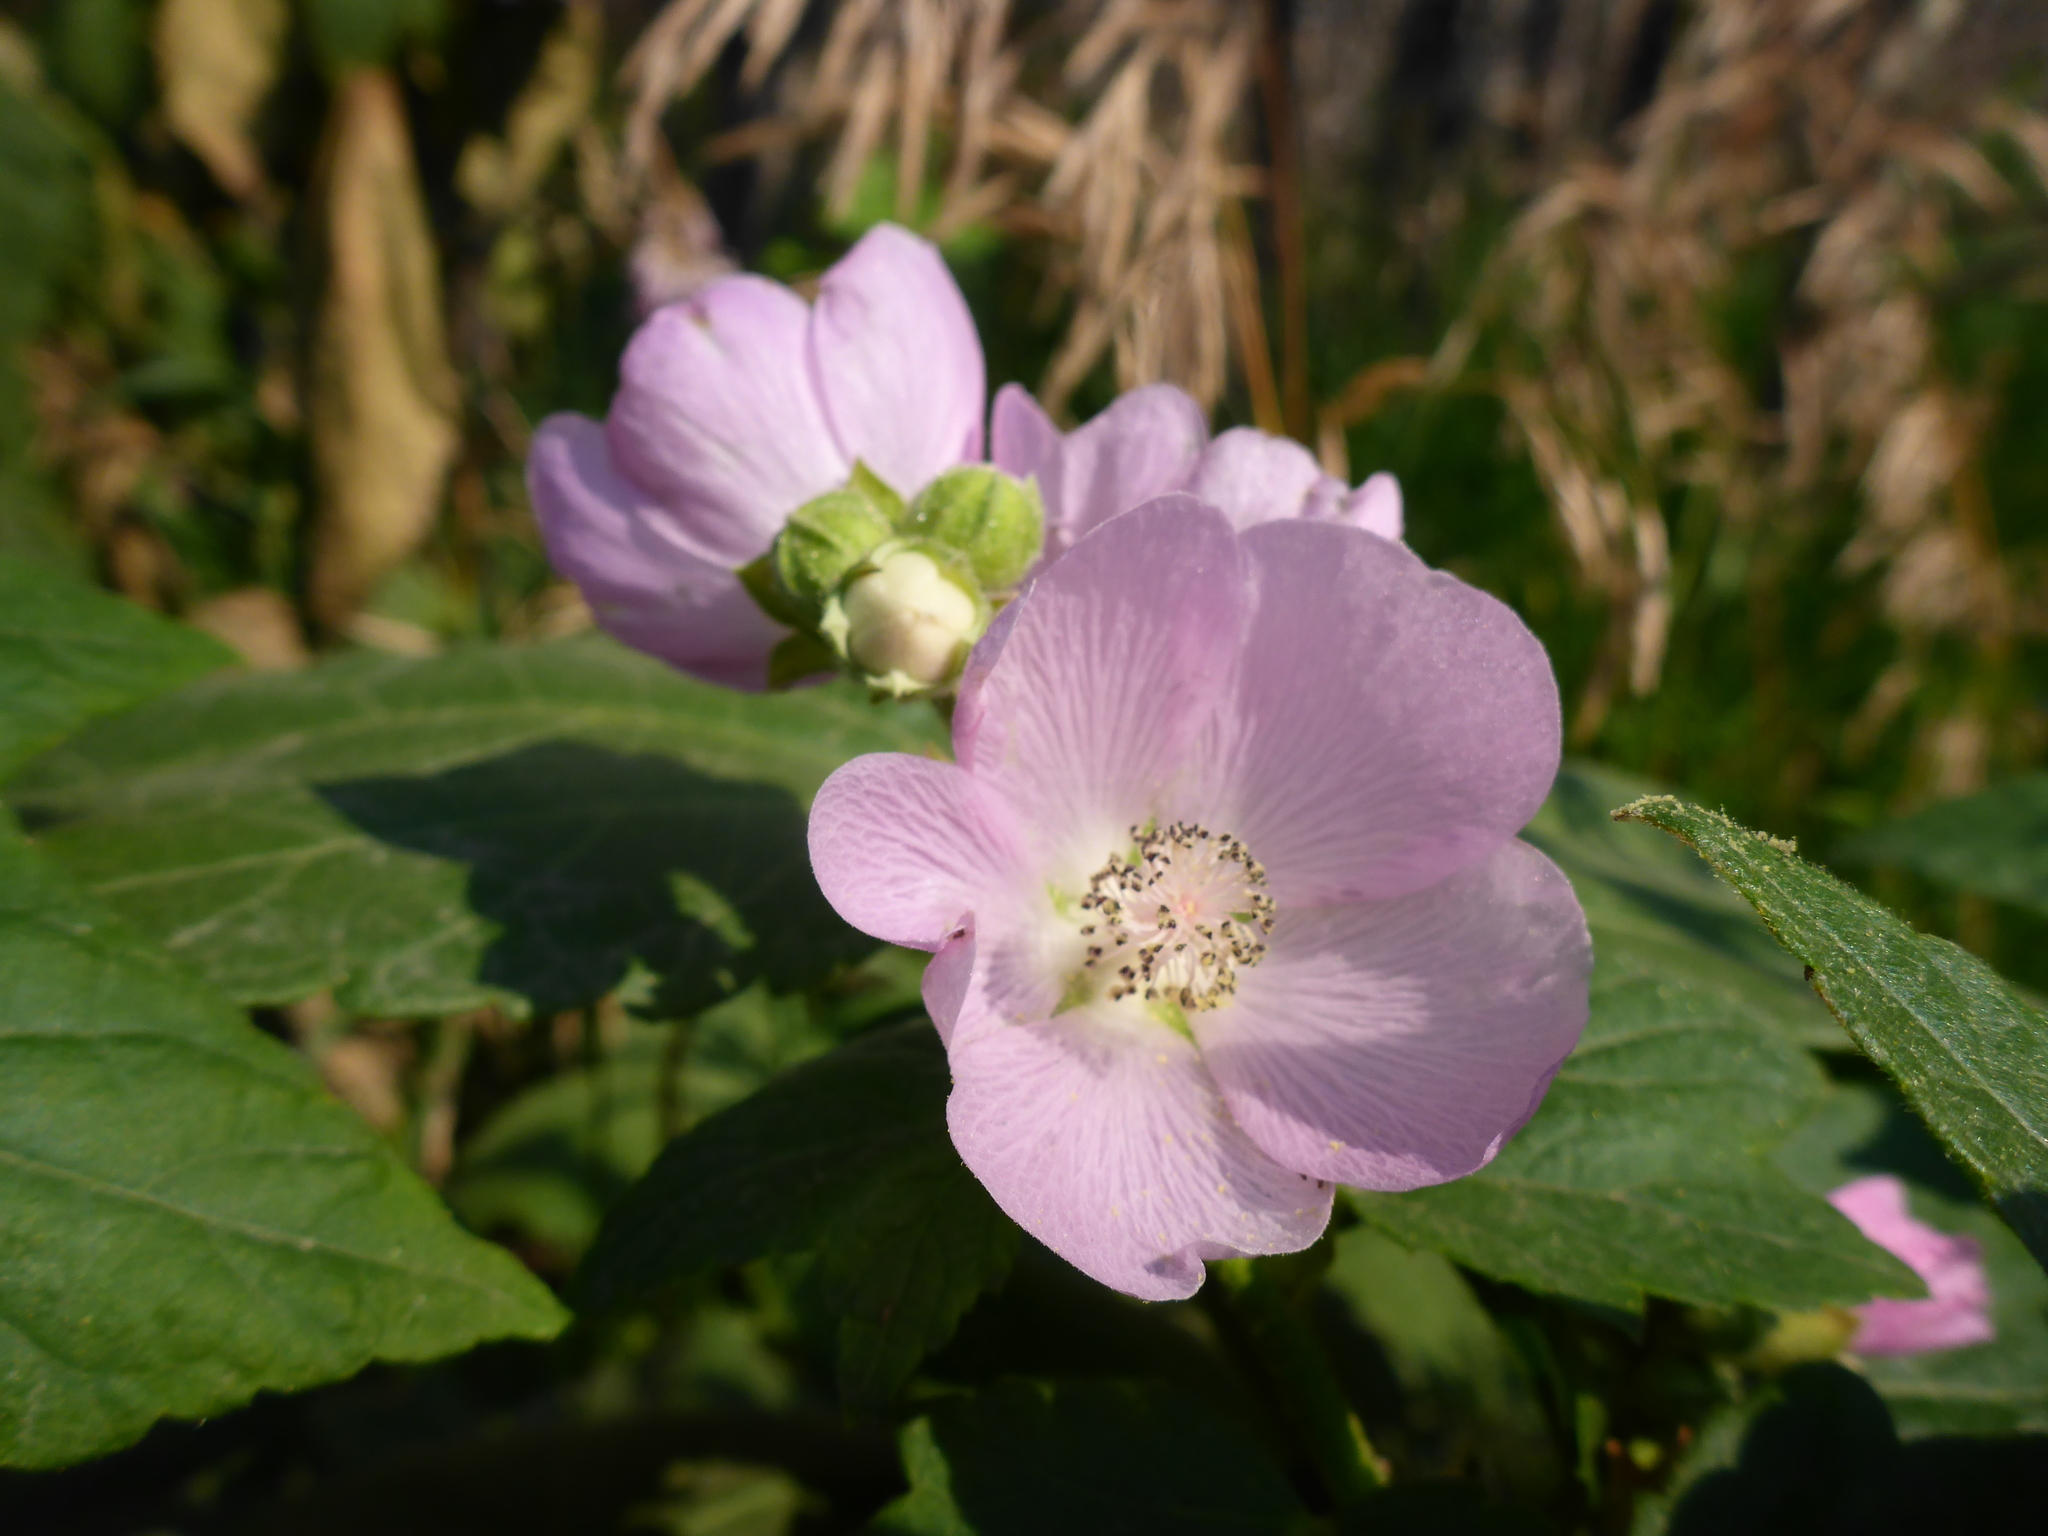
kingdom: Plantae
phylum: Tracheophyta
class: Magnoliopsida
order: Malvales
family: Malvaceae
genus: Iliamna
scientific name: Iliamna rivularis
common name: Wild hollyhock
